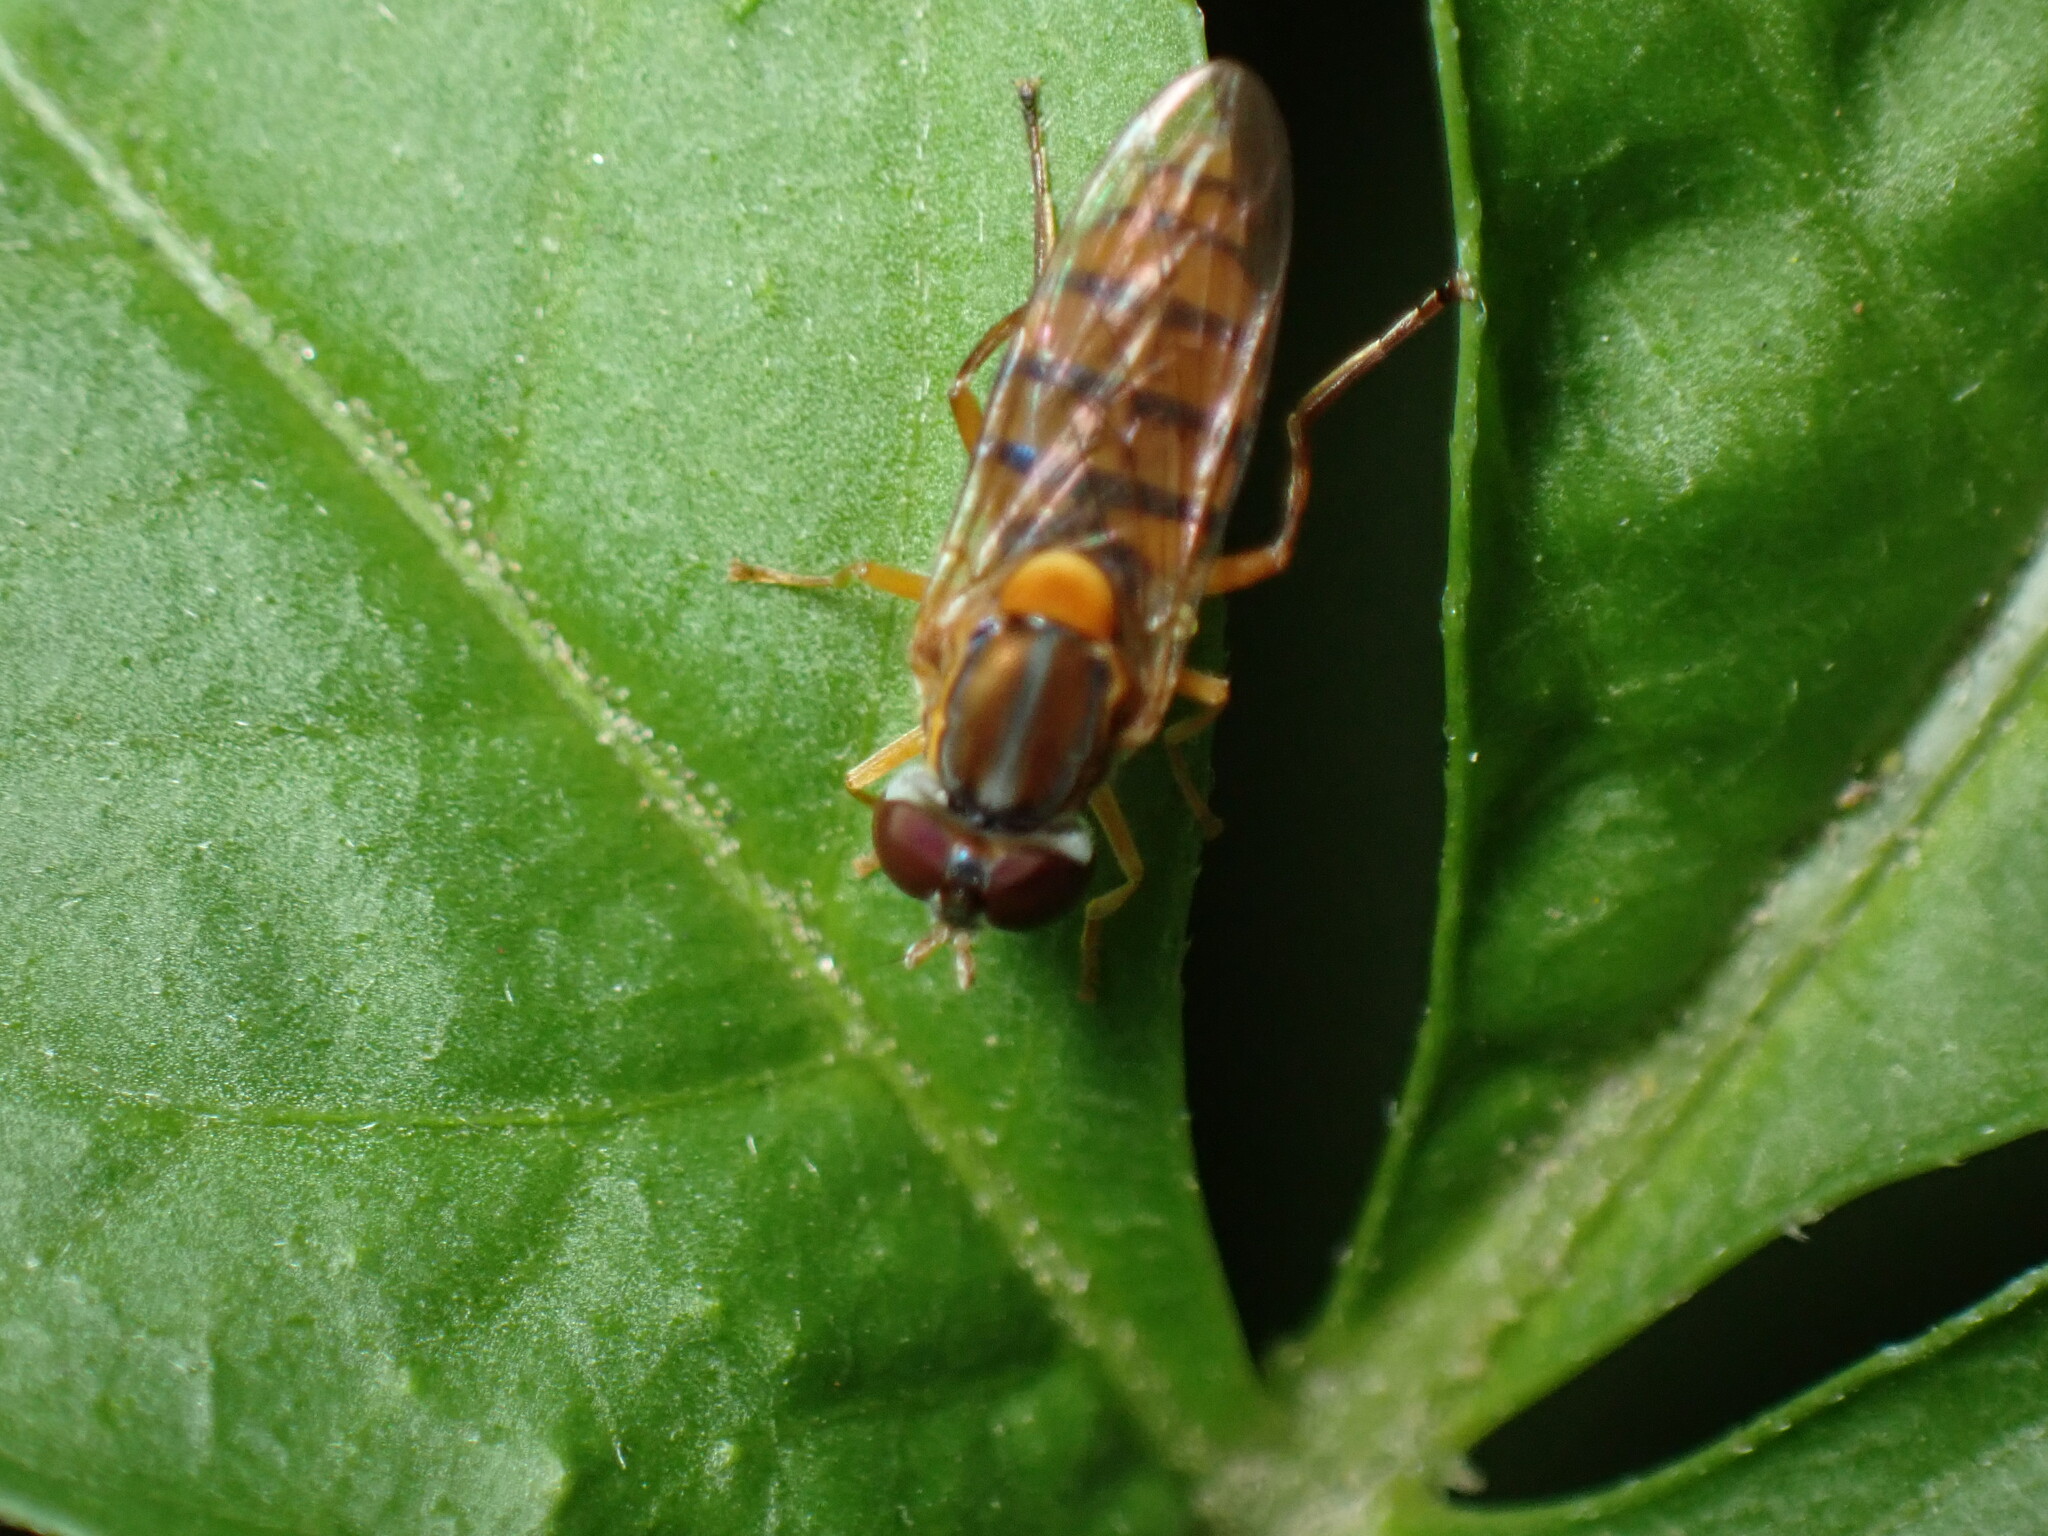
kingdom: Animalia
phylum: Arthropoda
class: Insecta
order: Diptera
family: Syrphidae
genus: Toxomerus
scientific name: Toxomerus jussiaeae
